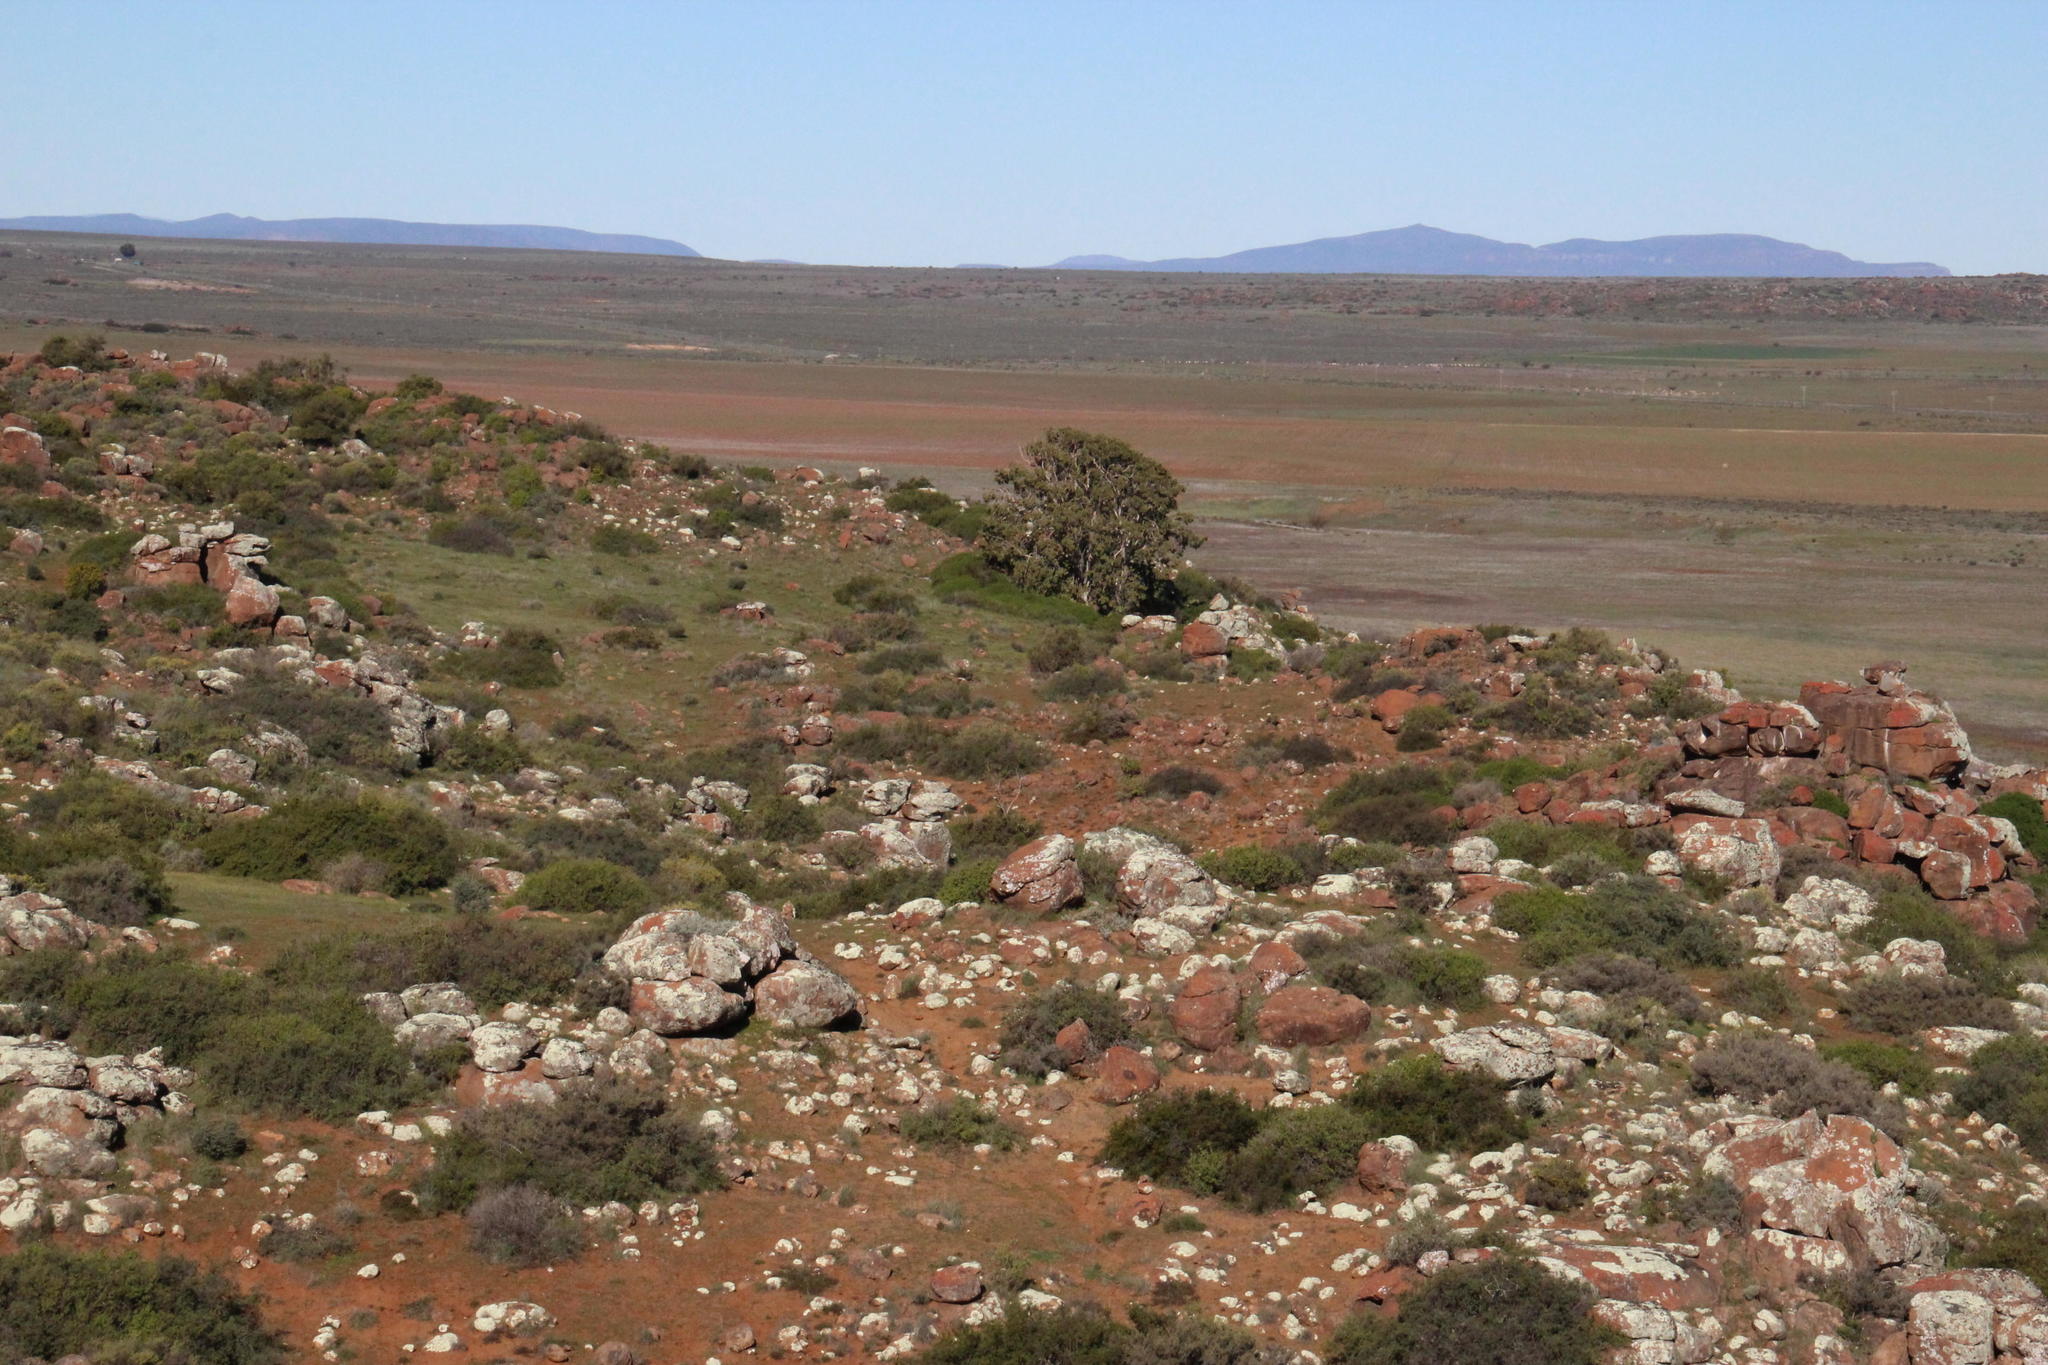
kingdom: Plantae
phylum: Tracheophyta
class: Magnoliopsida
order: Rosales
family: Moraceae
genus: Ficus
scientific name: Ficus cordata
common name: Namaqua rock fig
